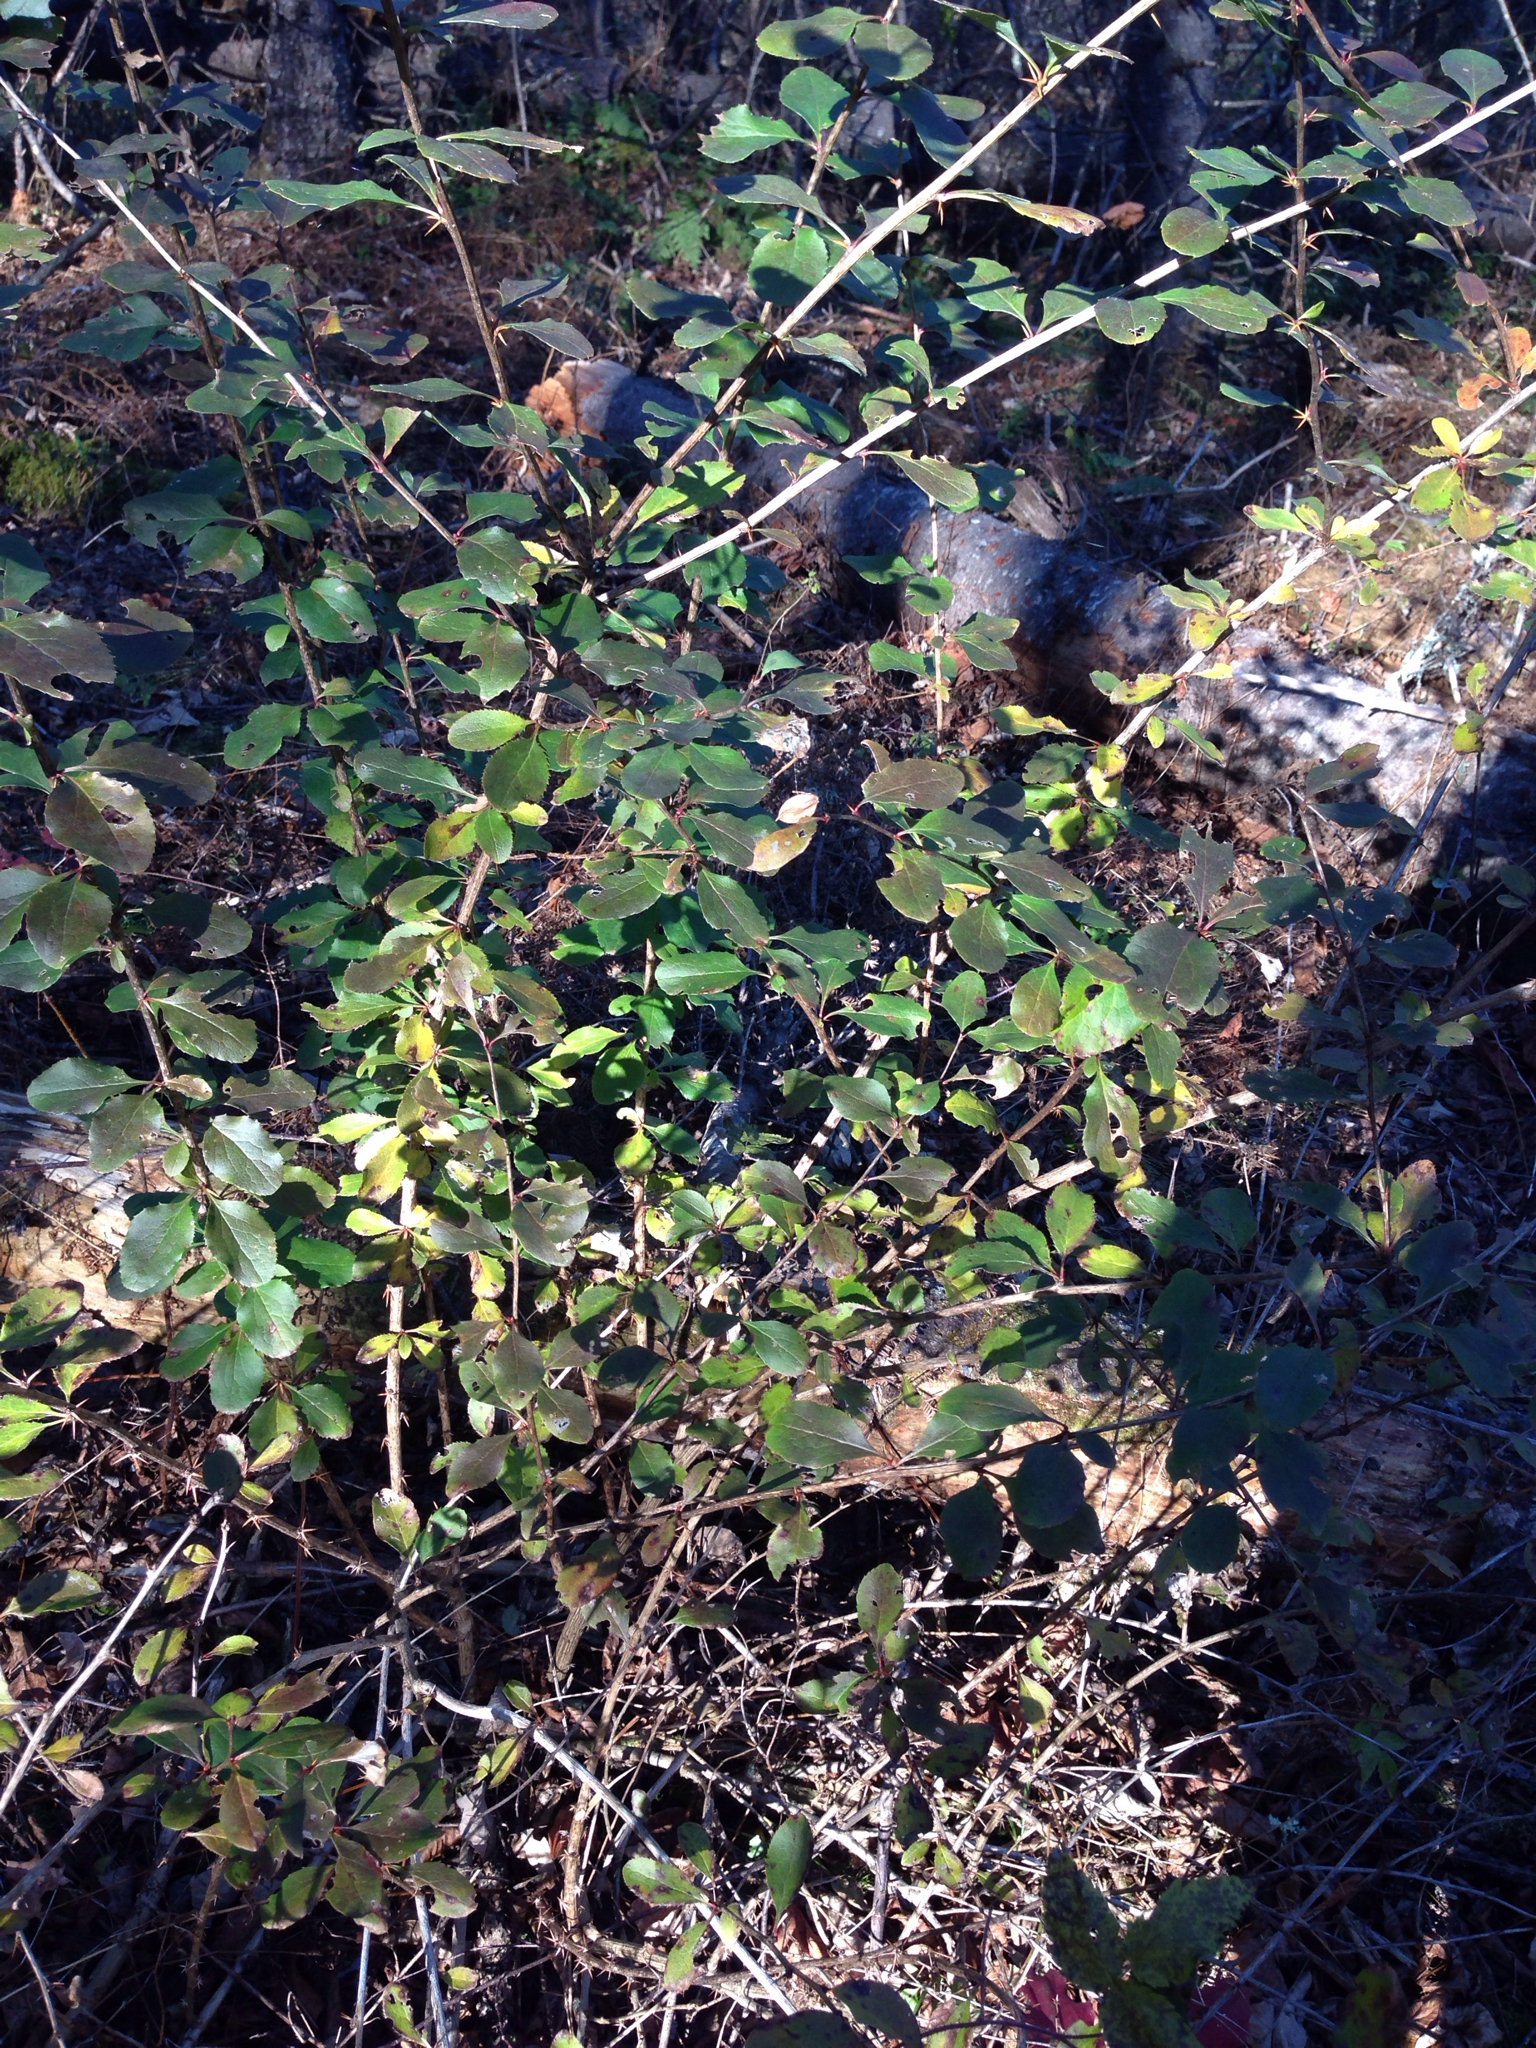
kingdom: Plantae
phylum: Tracheophyta
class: Magnoliopsida
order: Ranunculales
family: Berberidaceae
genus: Berberis
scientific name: Berberis vulgaris
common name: Barberry
